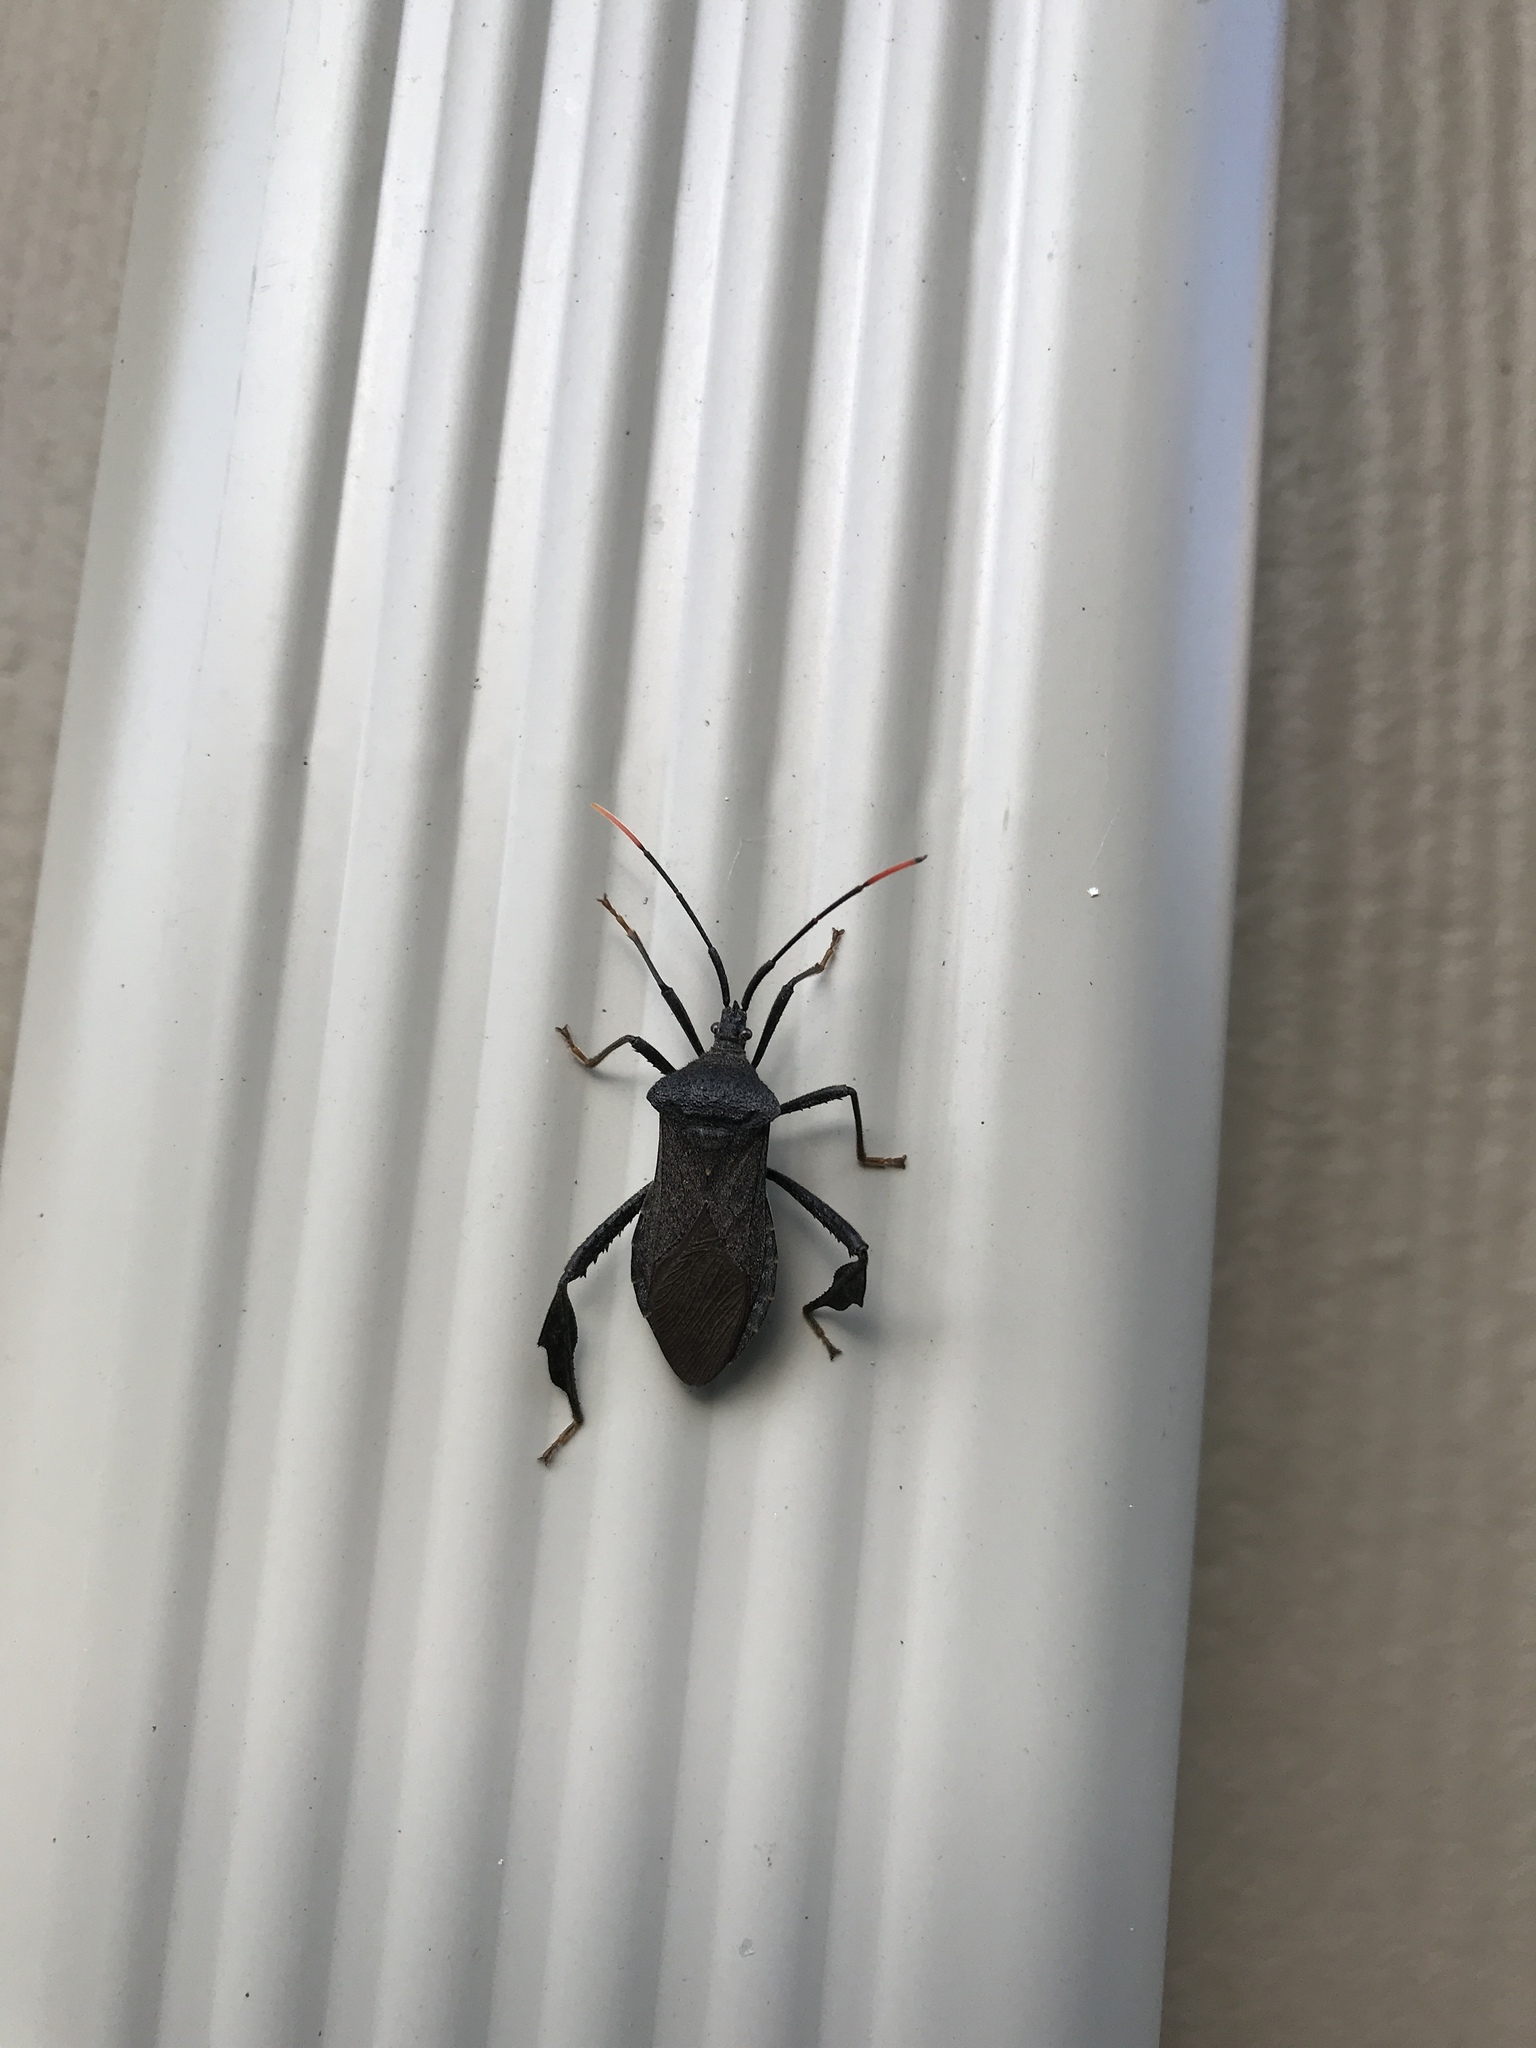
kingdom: Animalia
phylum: Arthropoda
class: Insecta
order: Hemiptera
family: Coreidae
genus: Acanthocephala
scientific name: Acanthocephala terminalis
